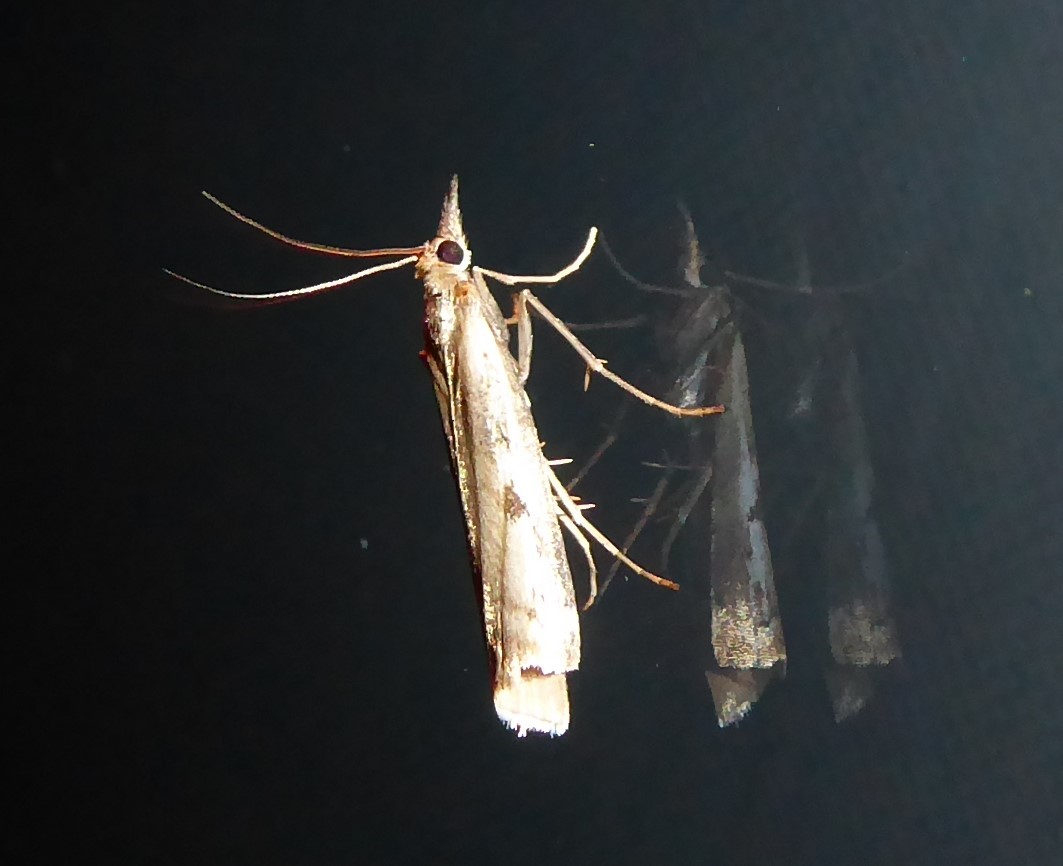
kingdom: Animalia
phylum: Arthropoda
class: Insecta
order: Lepidoptera
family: Crambidae
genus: Orocrambus
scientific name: Orocrambus vulgaris
